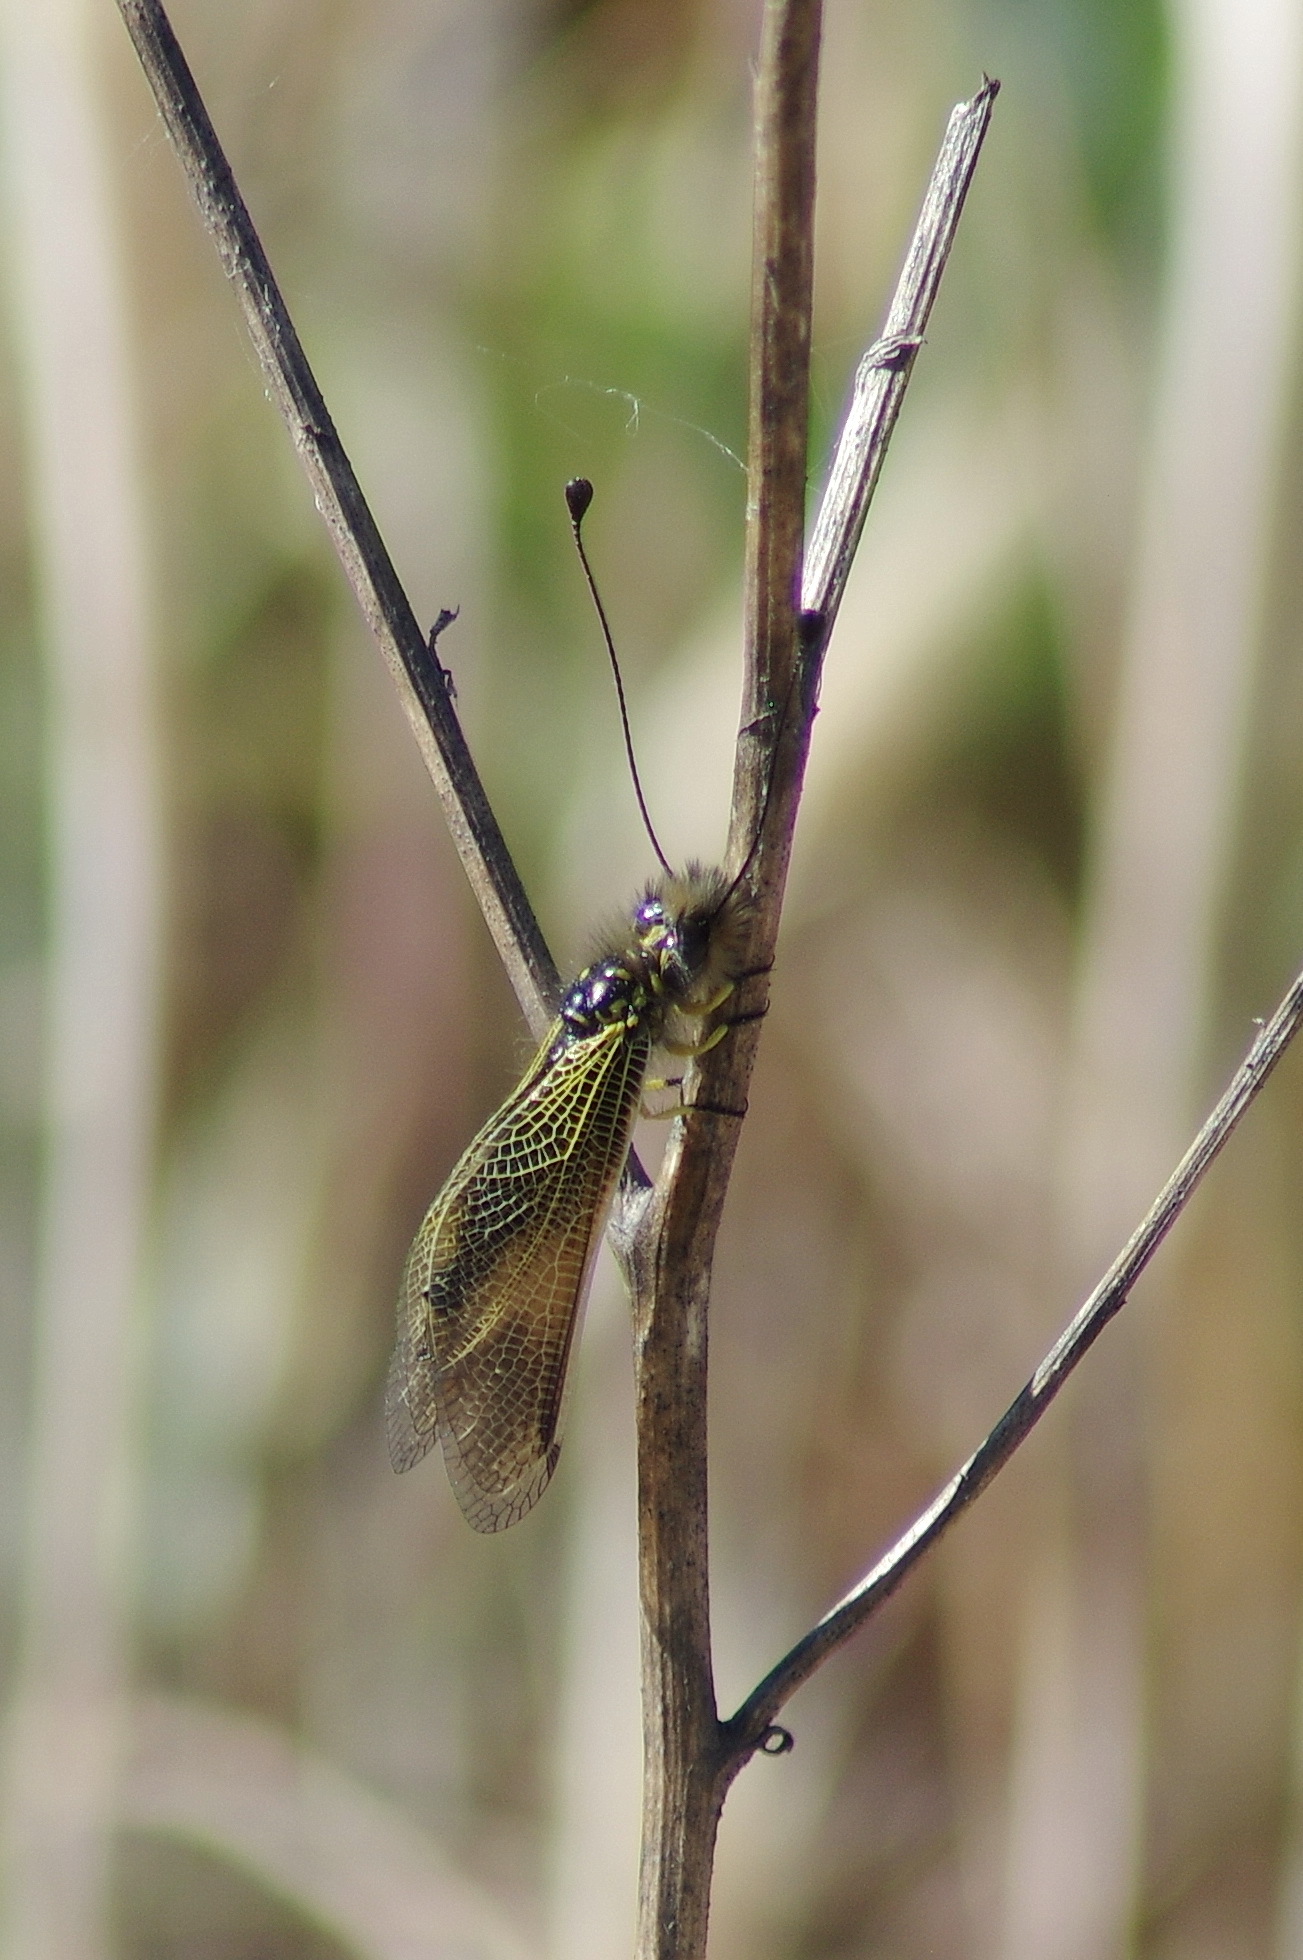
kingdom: Animalia
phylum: Arthropoda
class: Insecta
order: Neuroptera
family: Ascalaphidae
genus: Libelloides
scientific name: Libelloides ictericus
